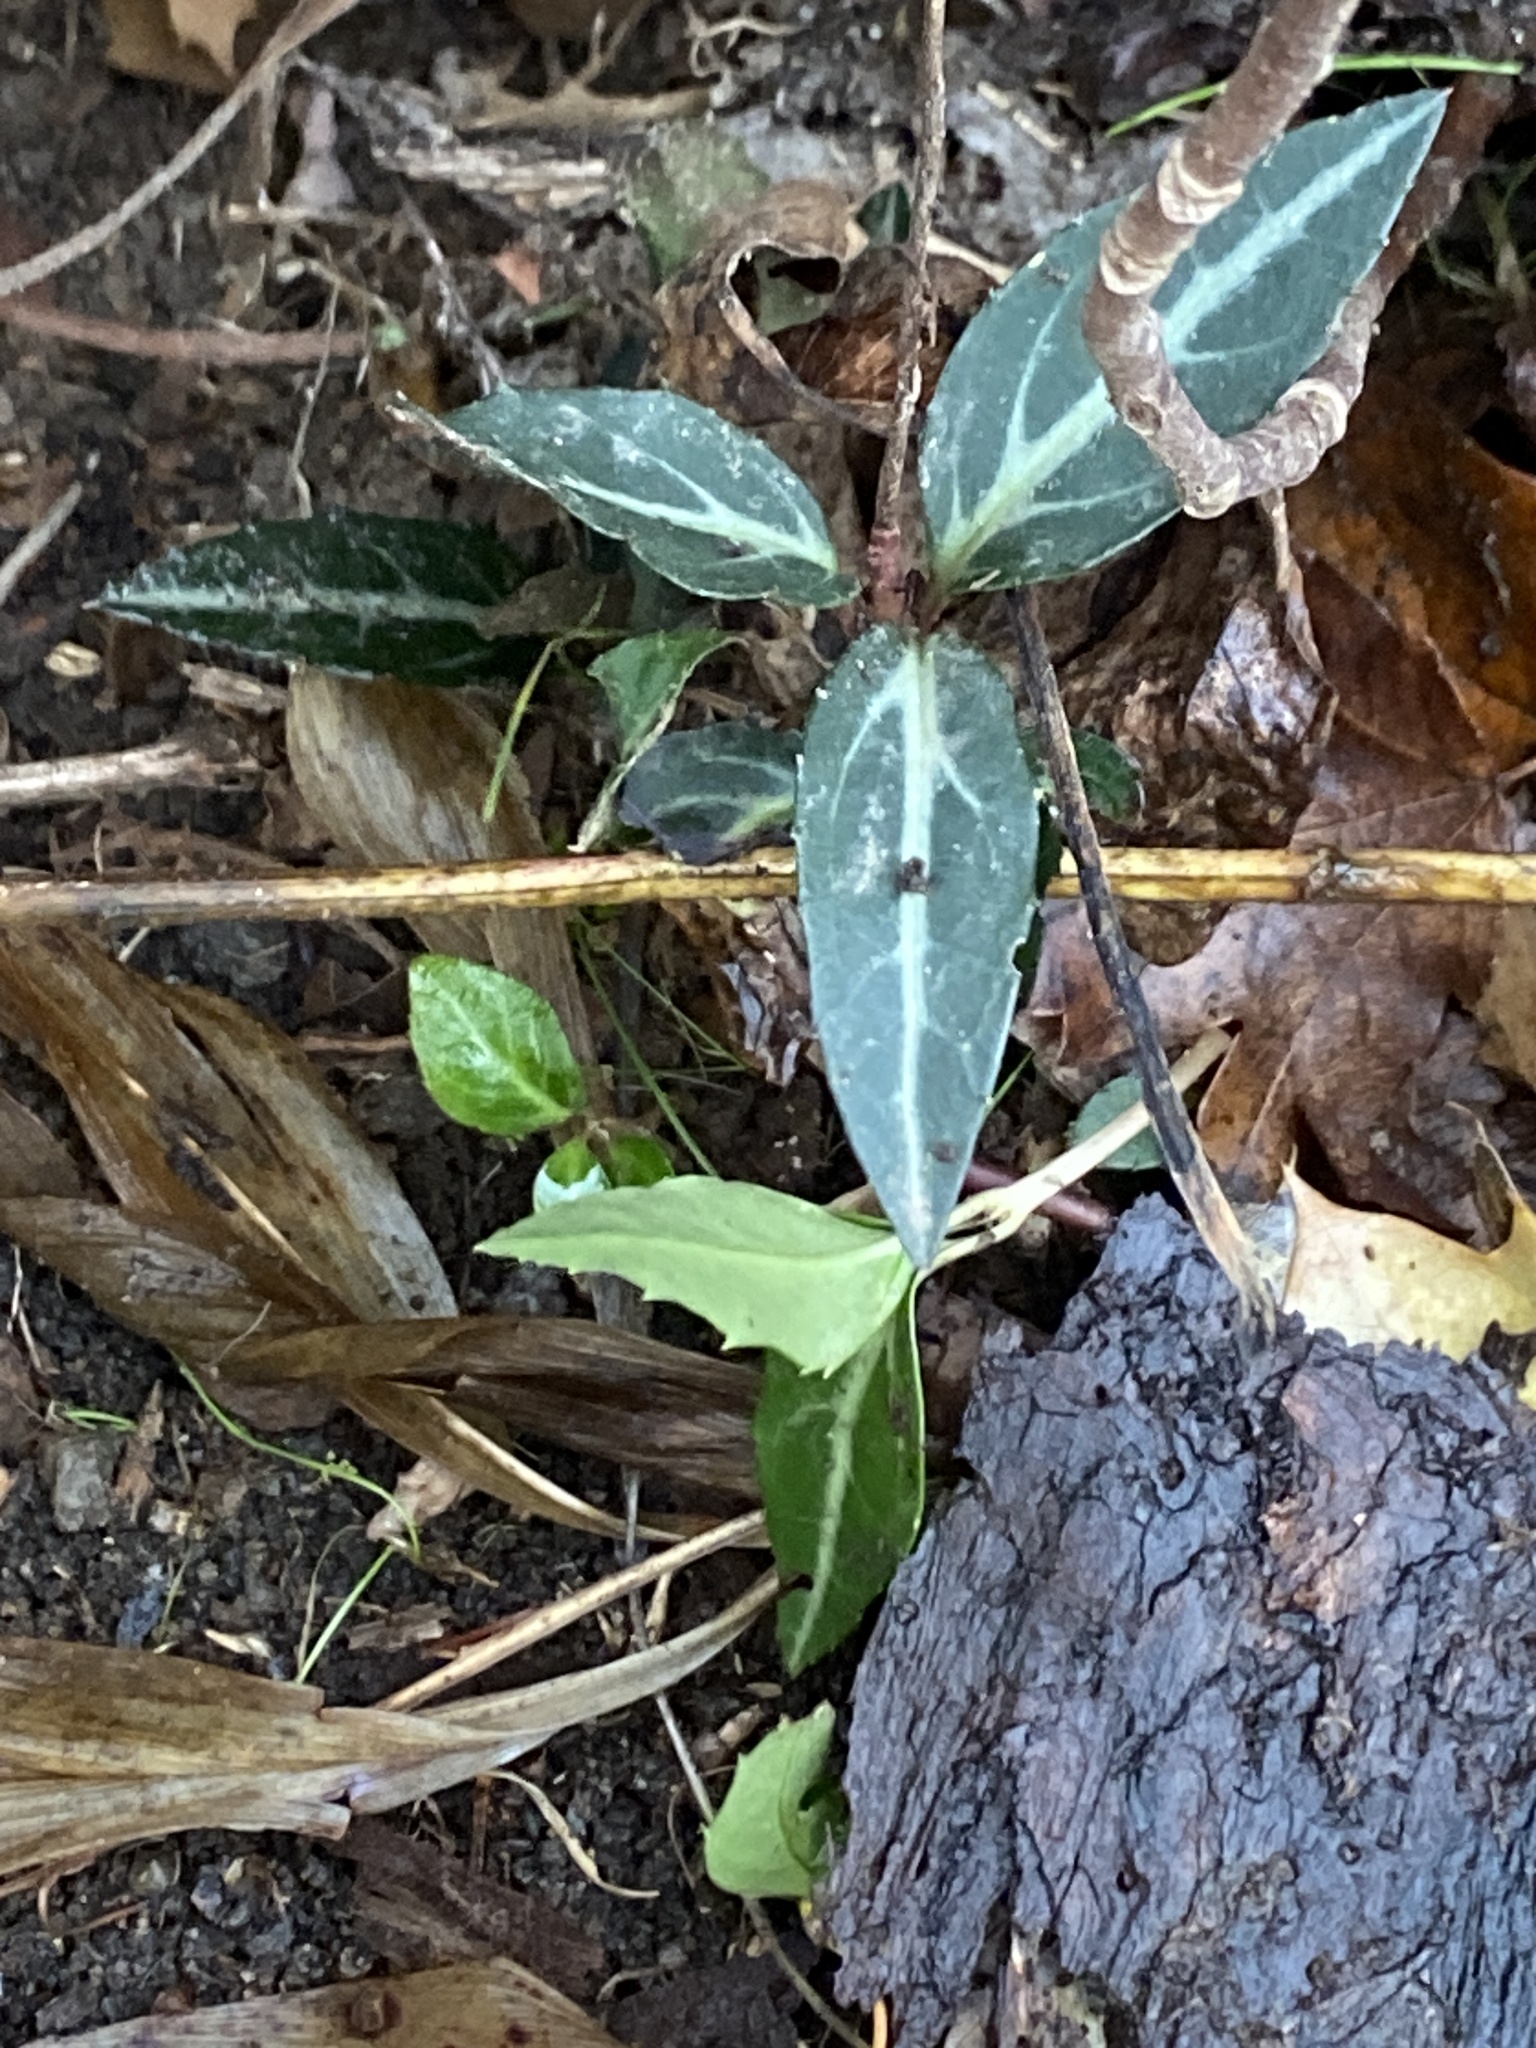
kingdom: Plantae
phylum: Tracheophyta
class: Magnoliopsida
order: Ericales
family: Ericaceae
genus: Chimaphila
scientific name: Chimaphila maculata
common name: Spotted pipsissewa
